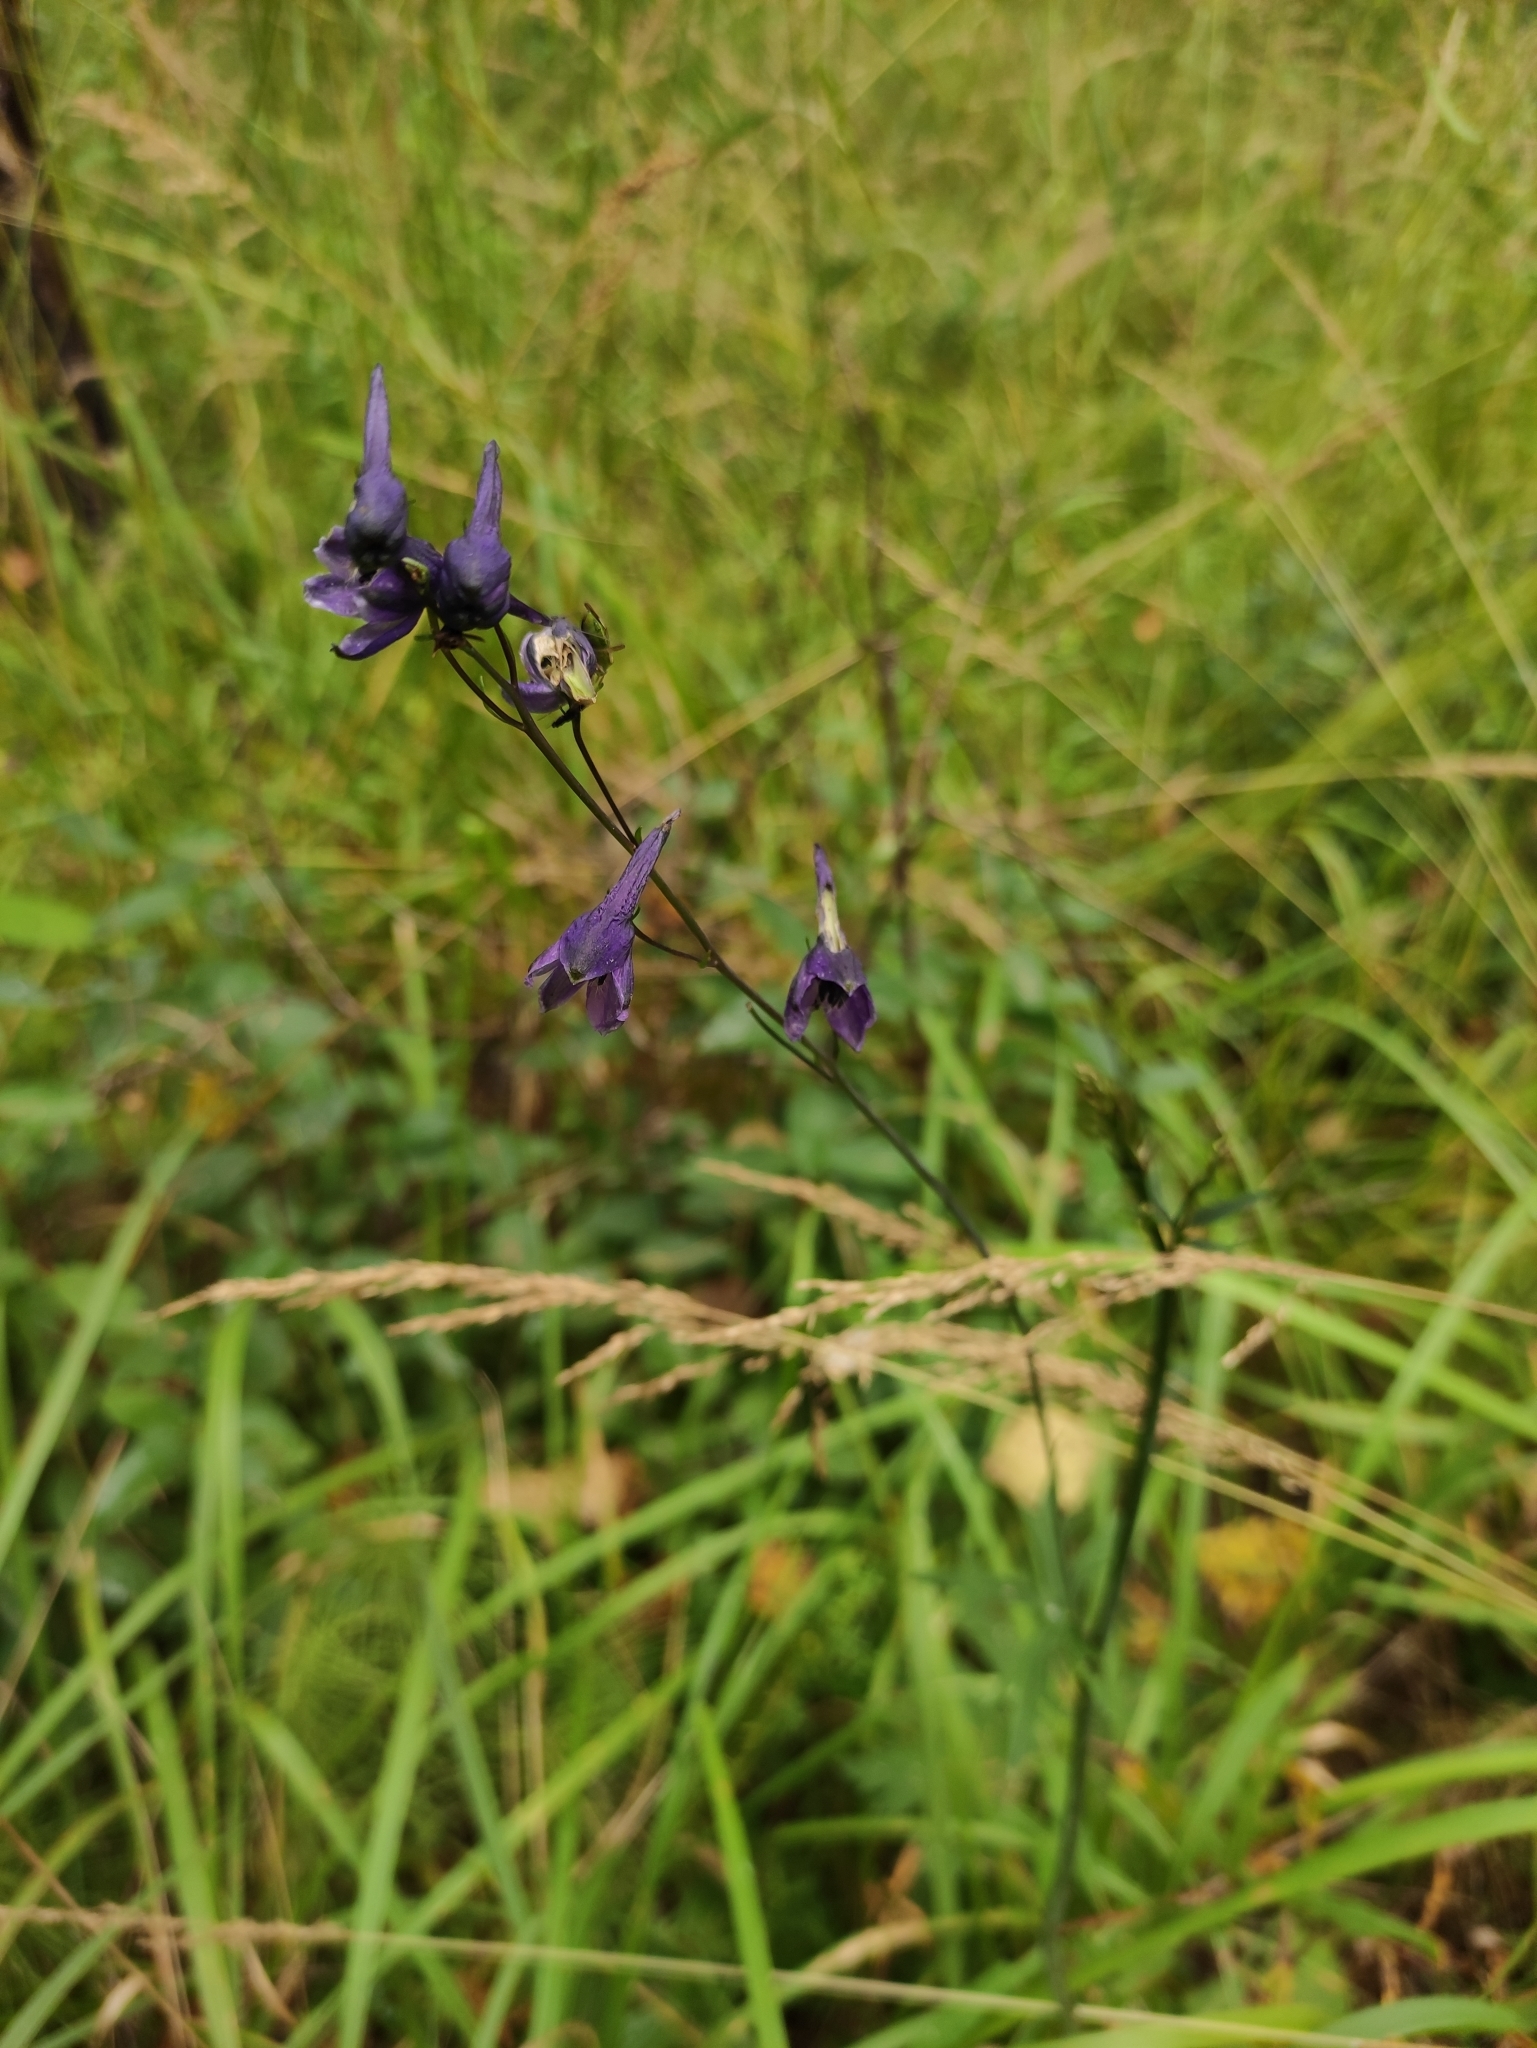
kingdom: Plantae
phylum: Tracheophyta
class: Magnoliopsida
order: Ranunculales
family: Ranunculaceae
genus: Delphinium
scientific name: Delphinium crassifolium
